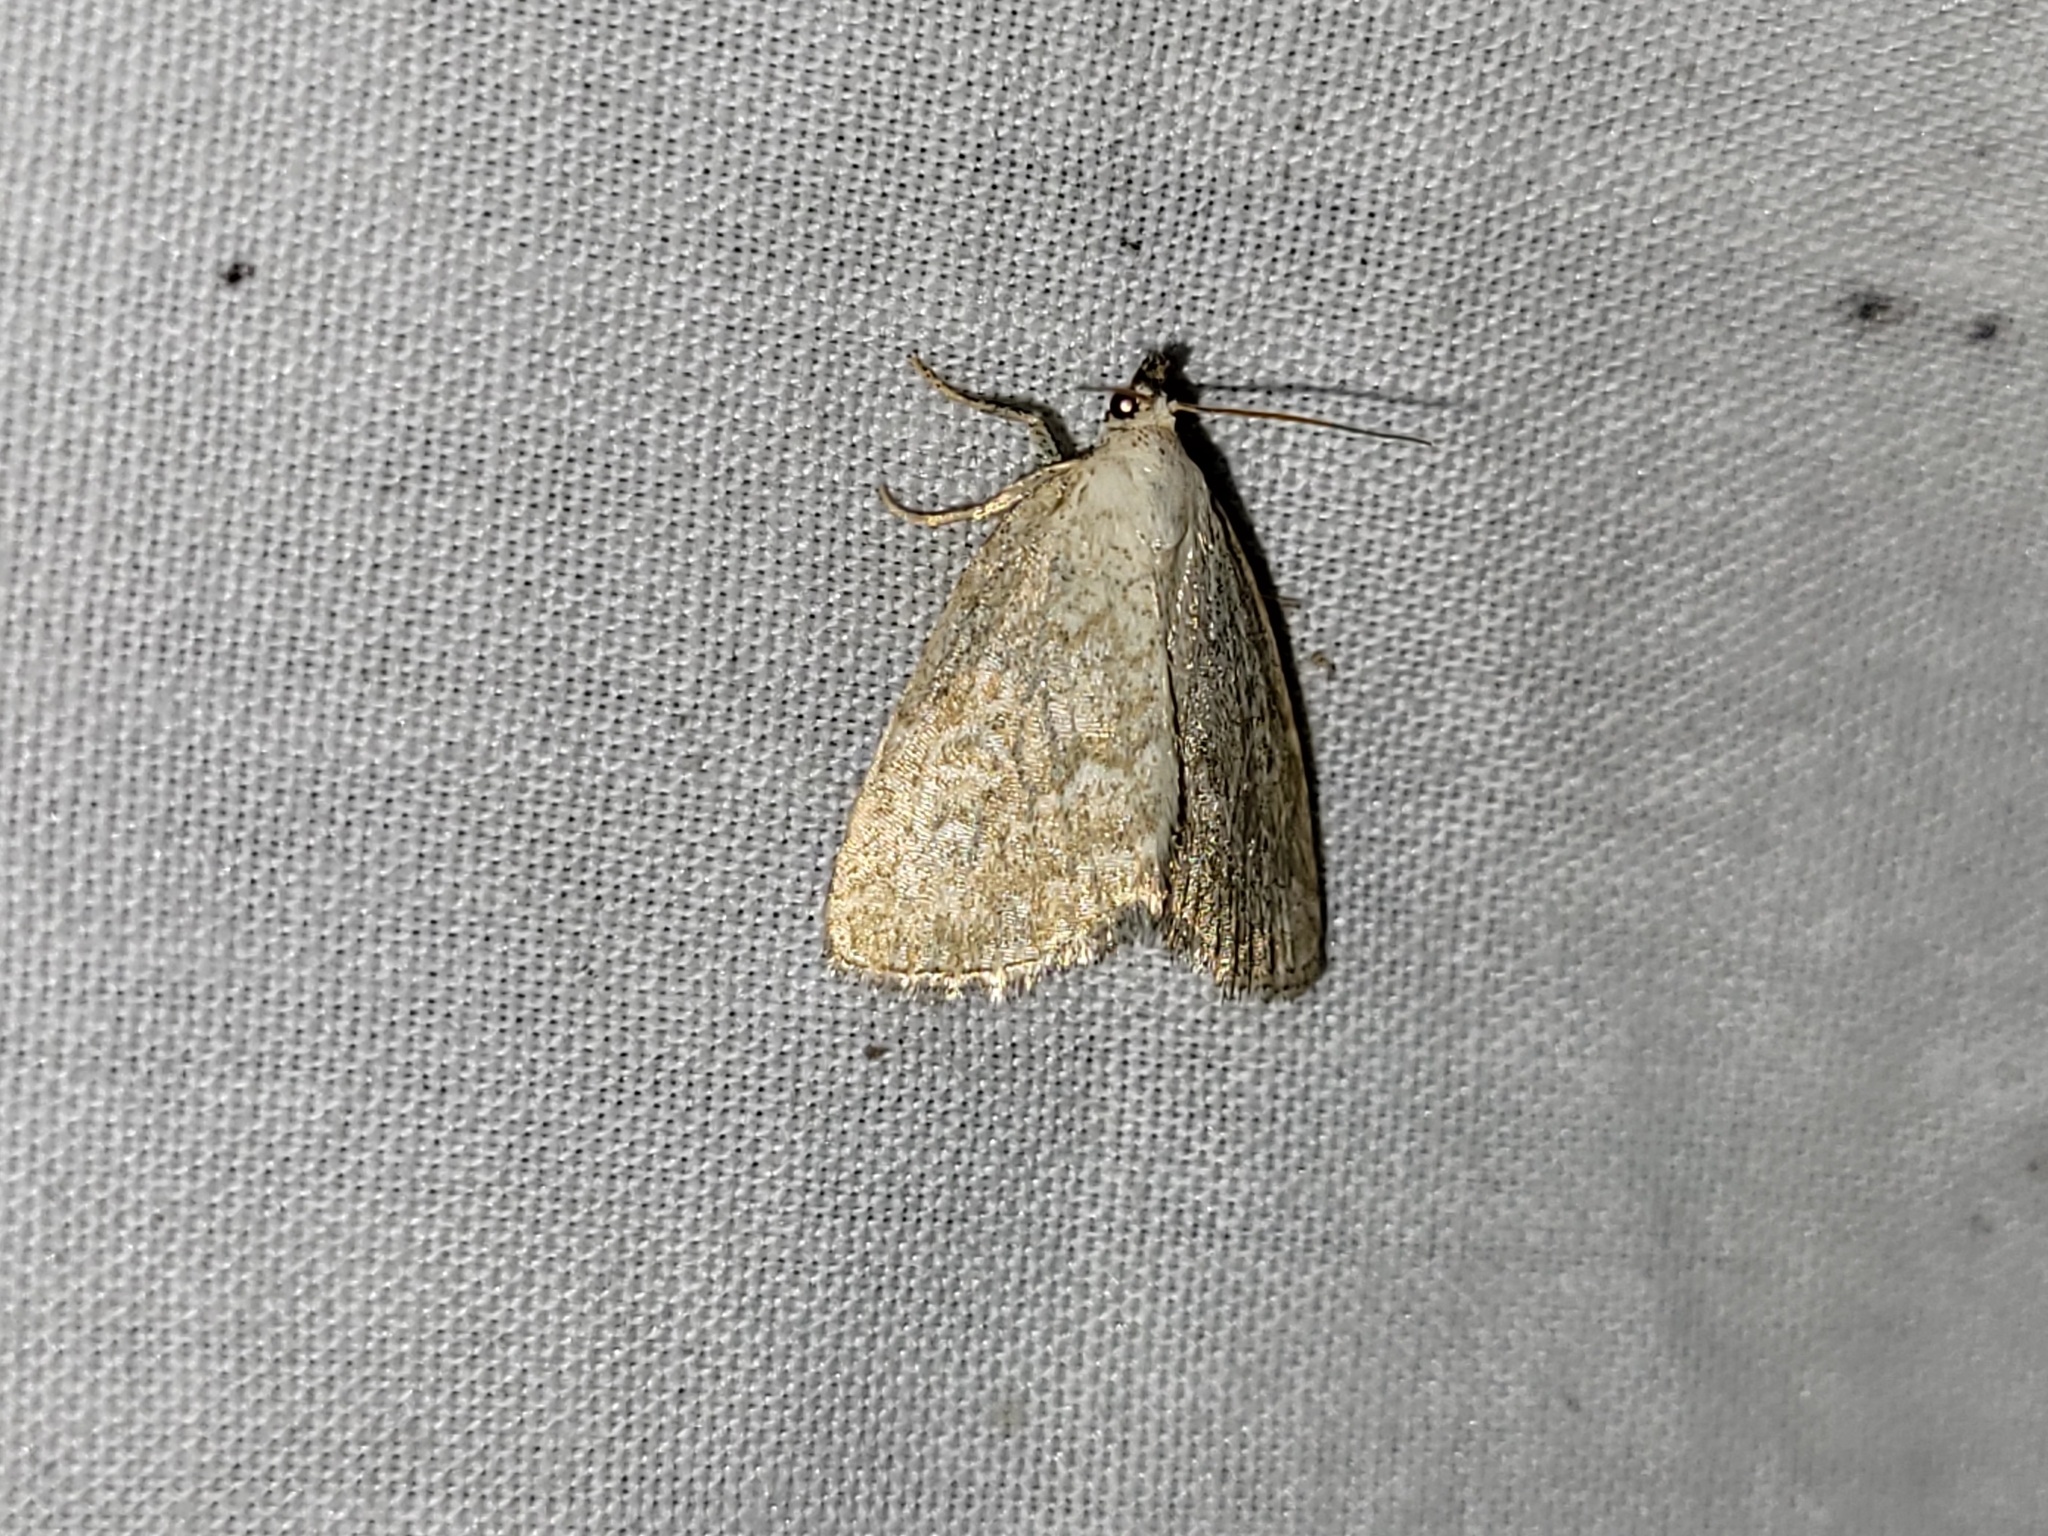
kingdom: Animalia
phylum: Arthropoda
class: Insecta
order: Lepidoptera
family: Noctuidae
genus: Protodeltote
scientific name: Protodeltote albidula
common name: Pale glyph
